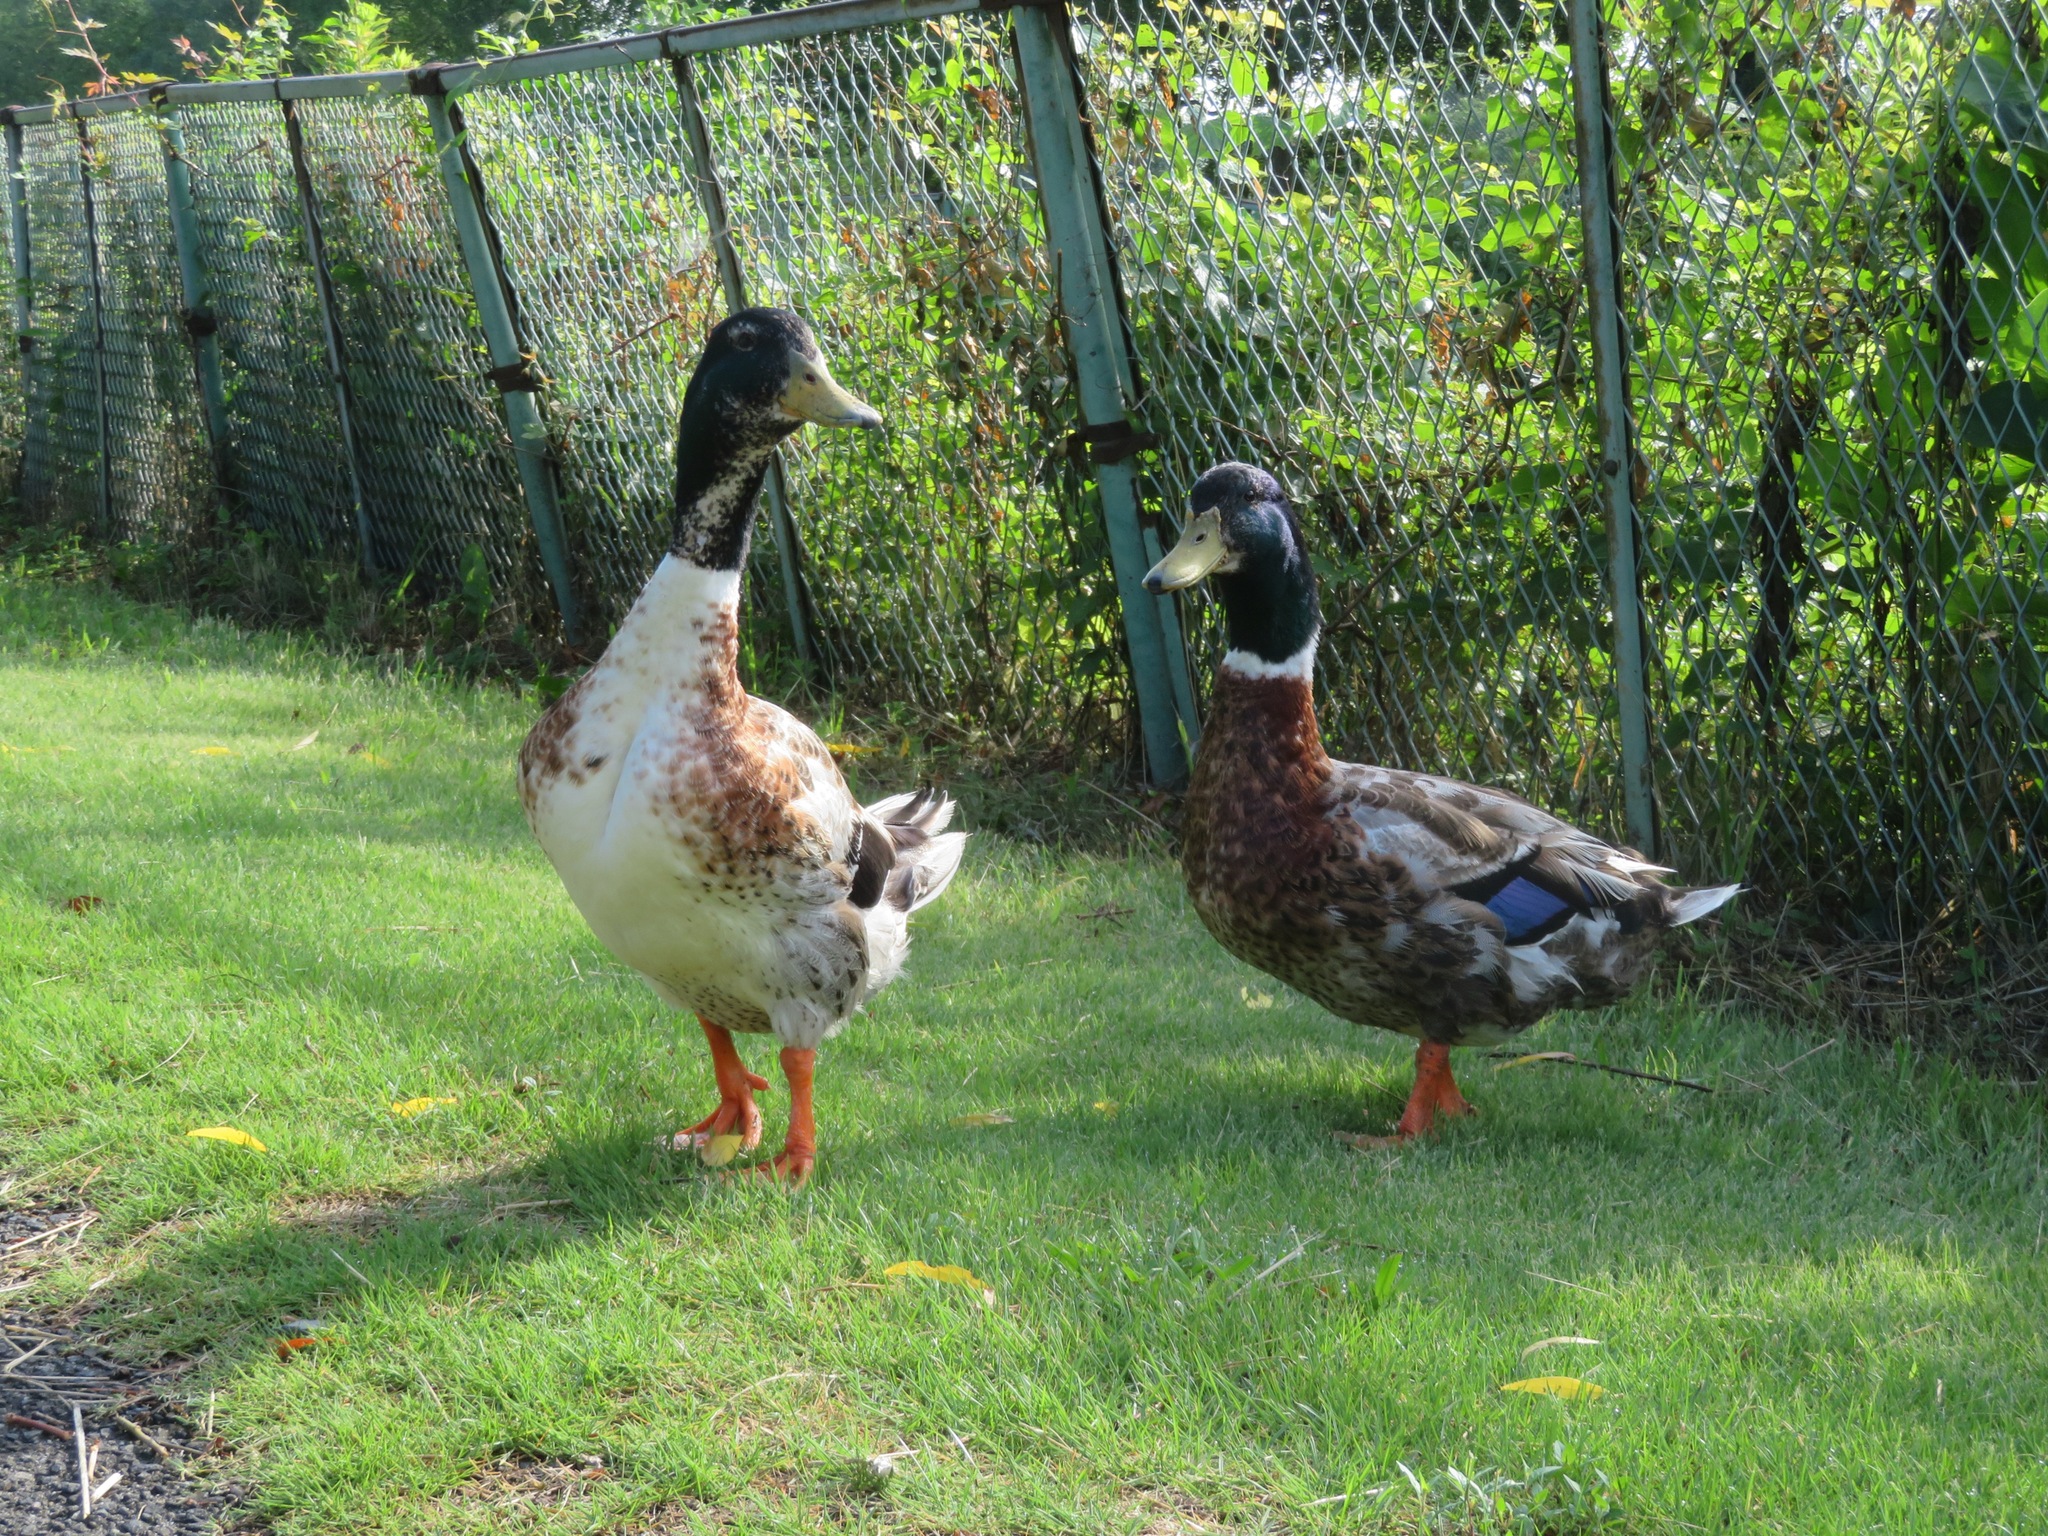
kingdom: Animalia
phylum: Chordata
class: Aves
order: Anseriformes
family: Anatidae
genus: Anas
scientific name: Anas platyrhynchos
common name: Mallard
